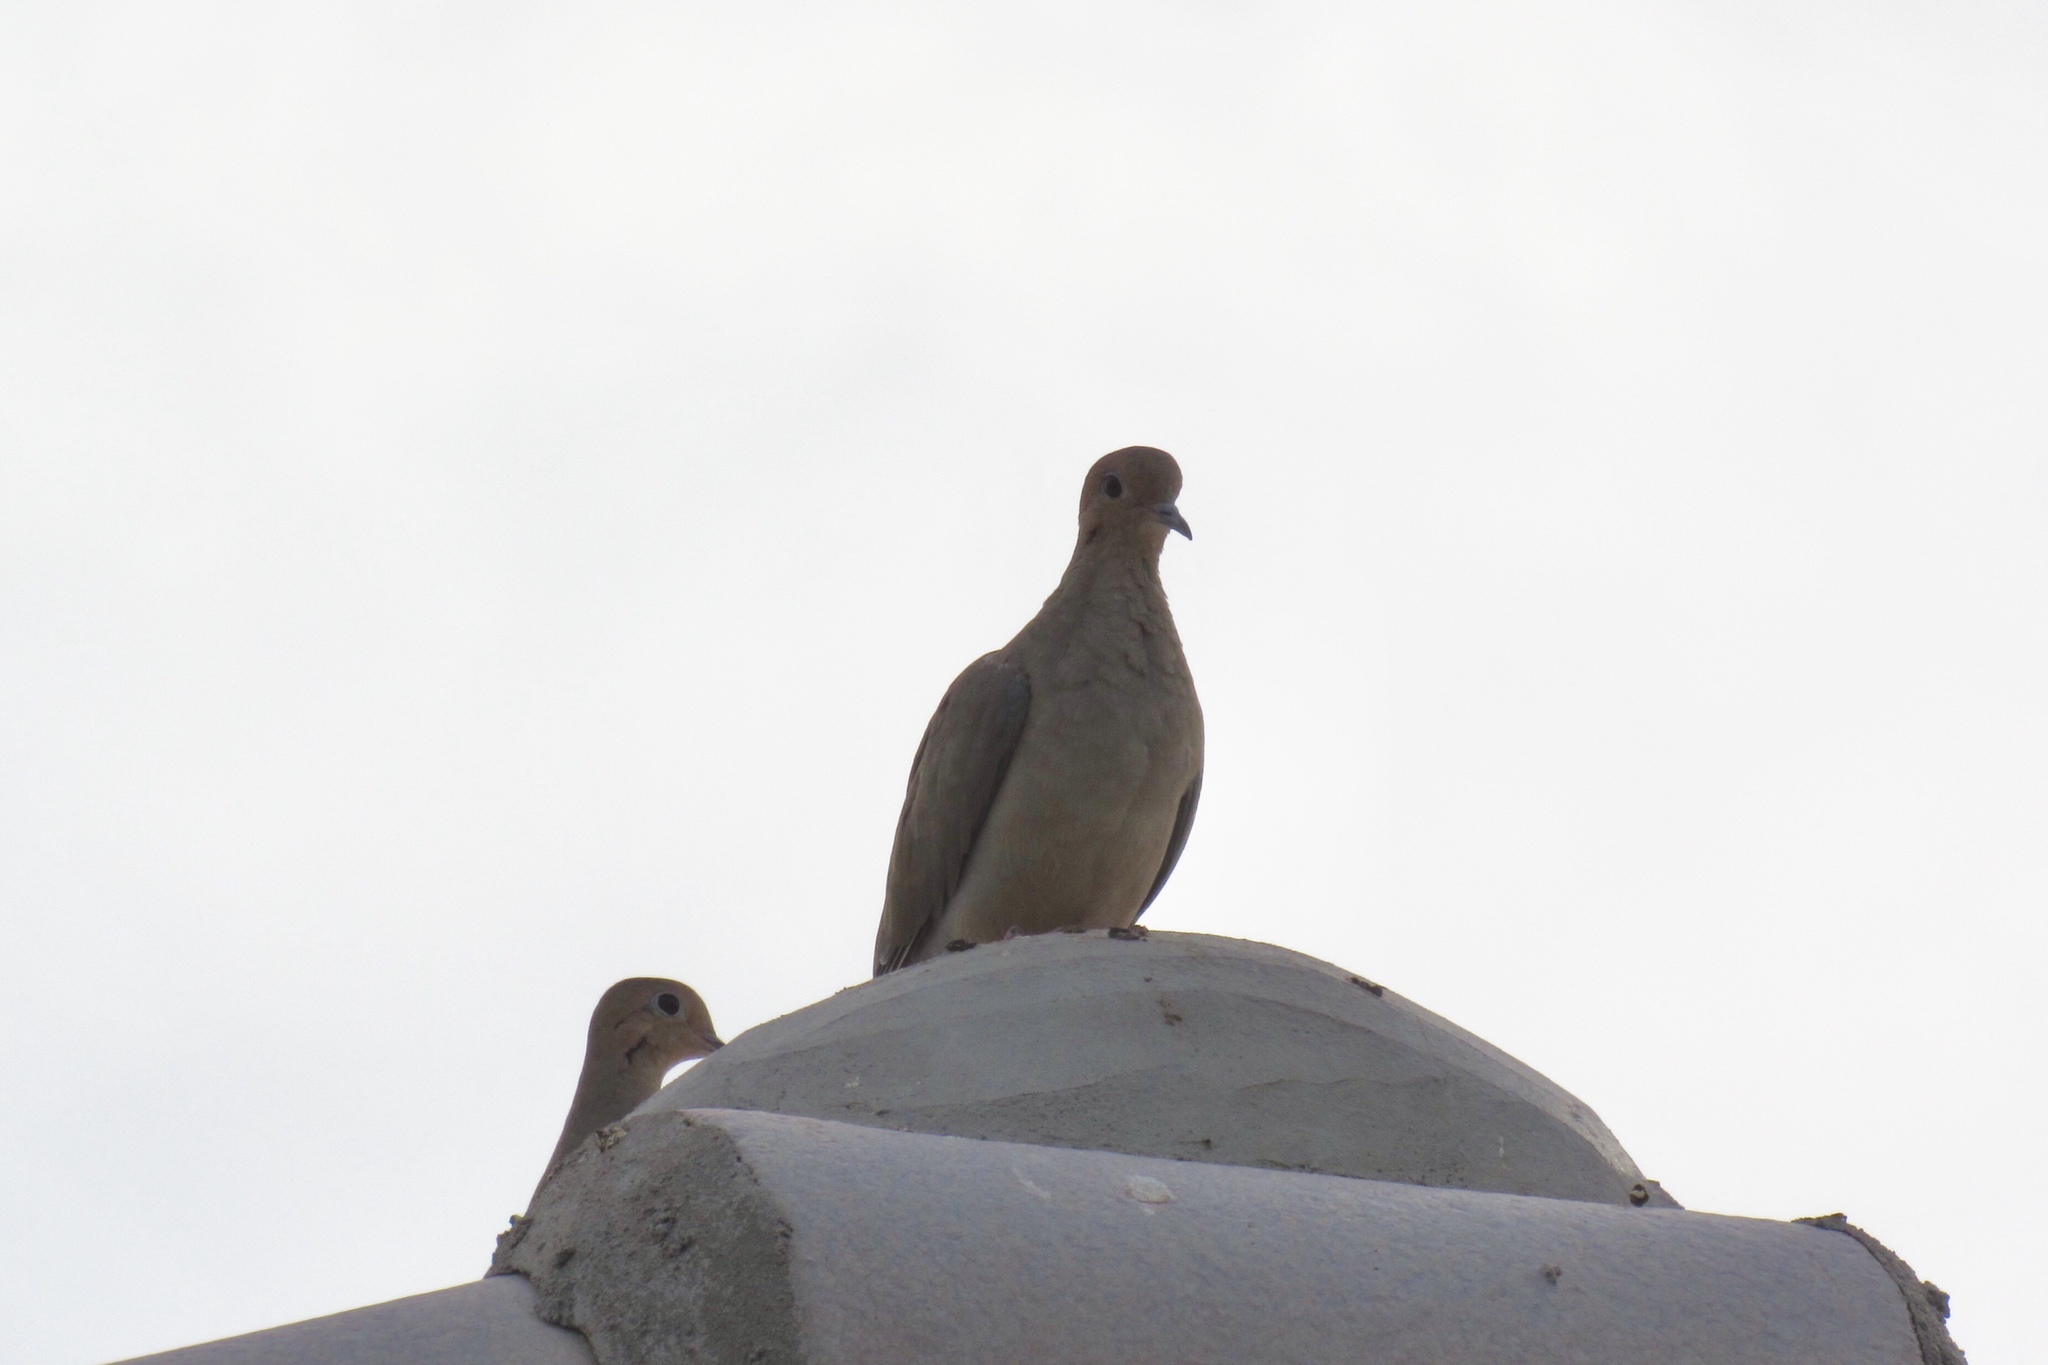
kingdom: Animalia
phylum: Chordata
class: Aves
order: Columbiformes
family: Columbidae
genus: Zenaida
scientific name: Zenaida macroura
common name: Mourning dove
